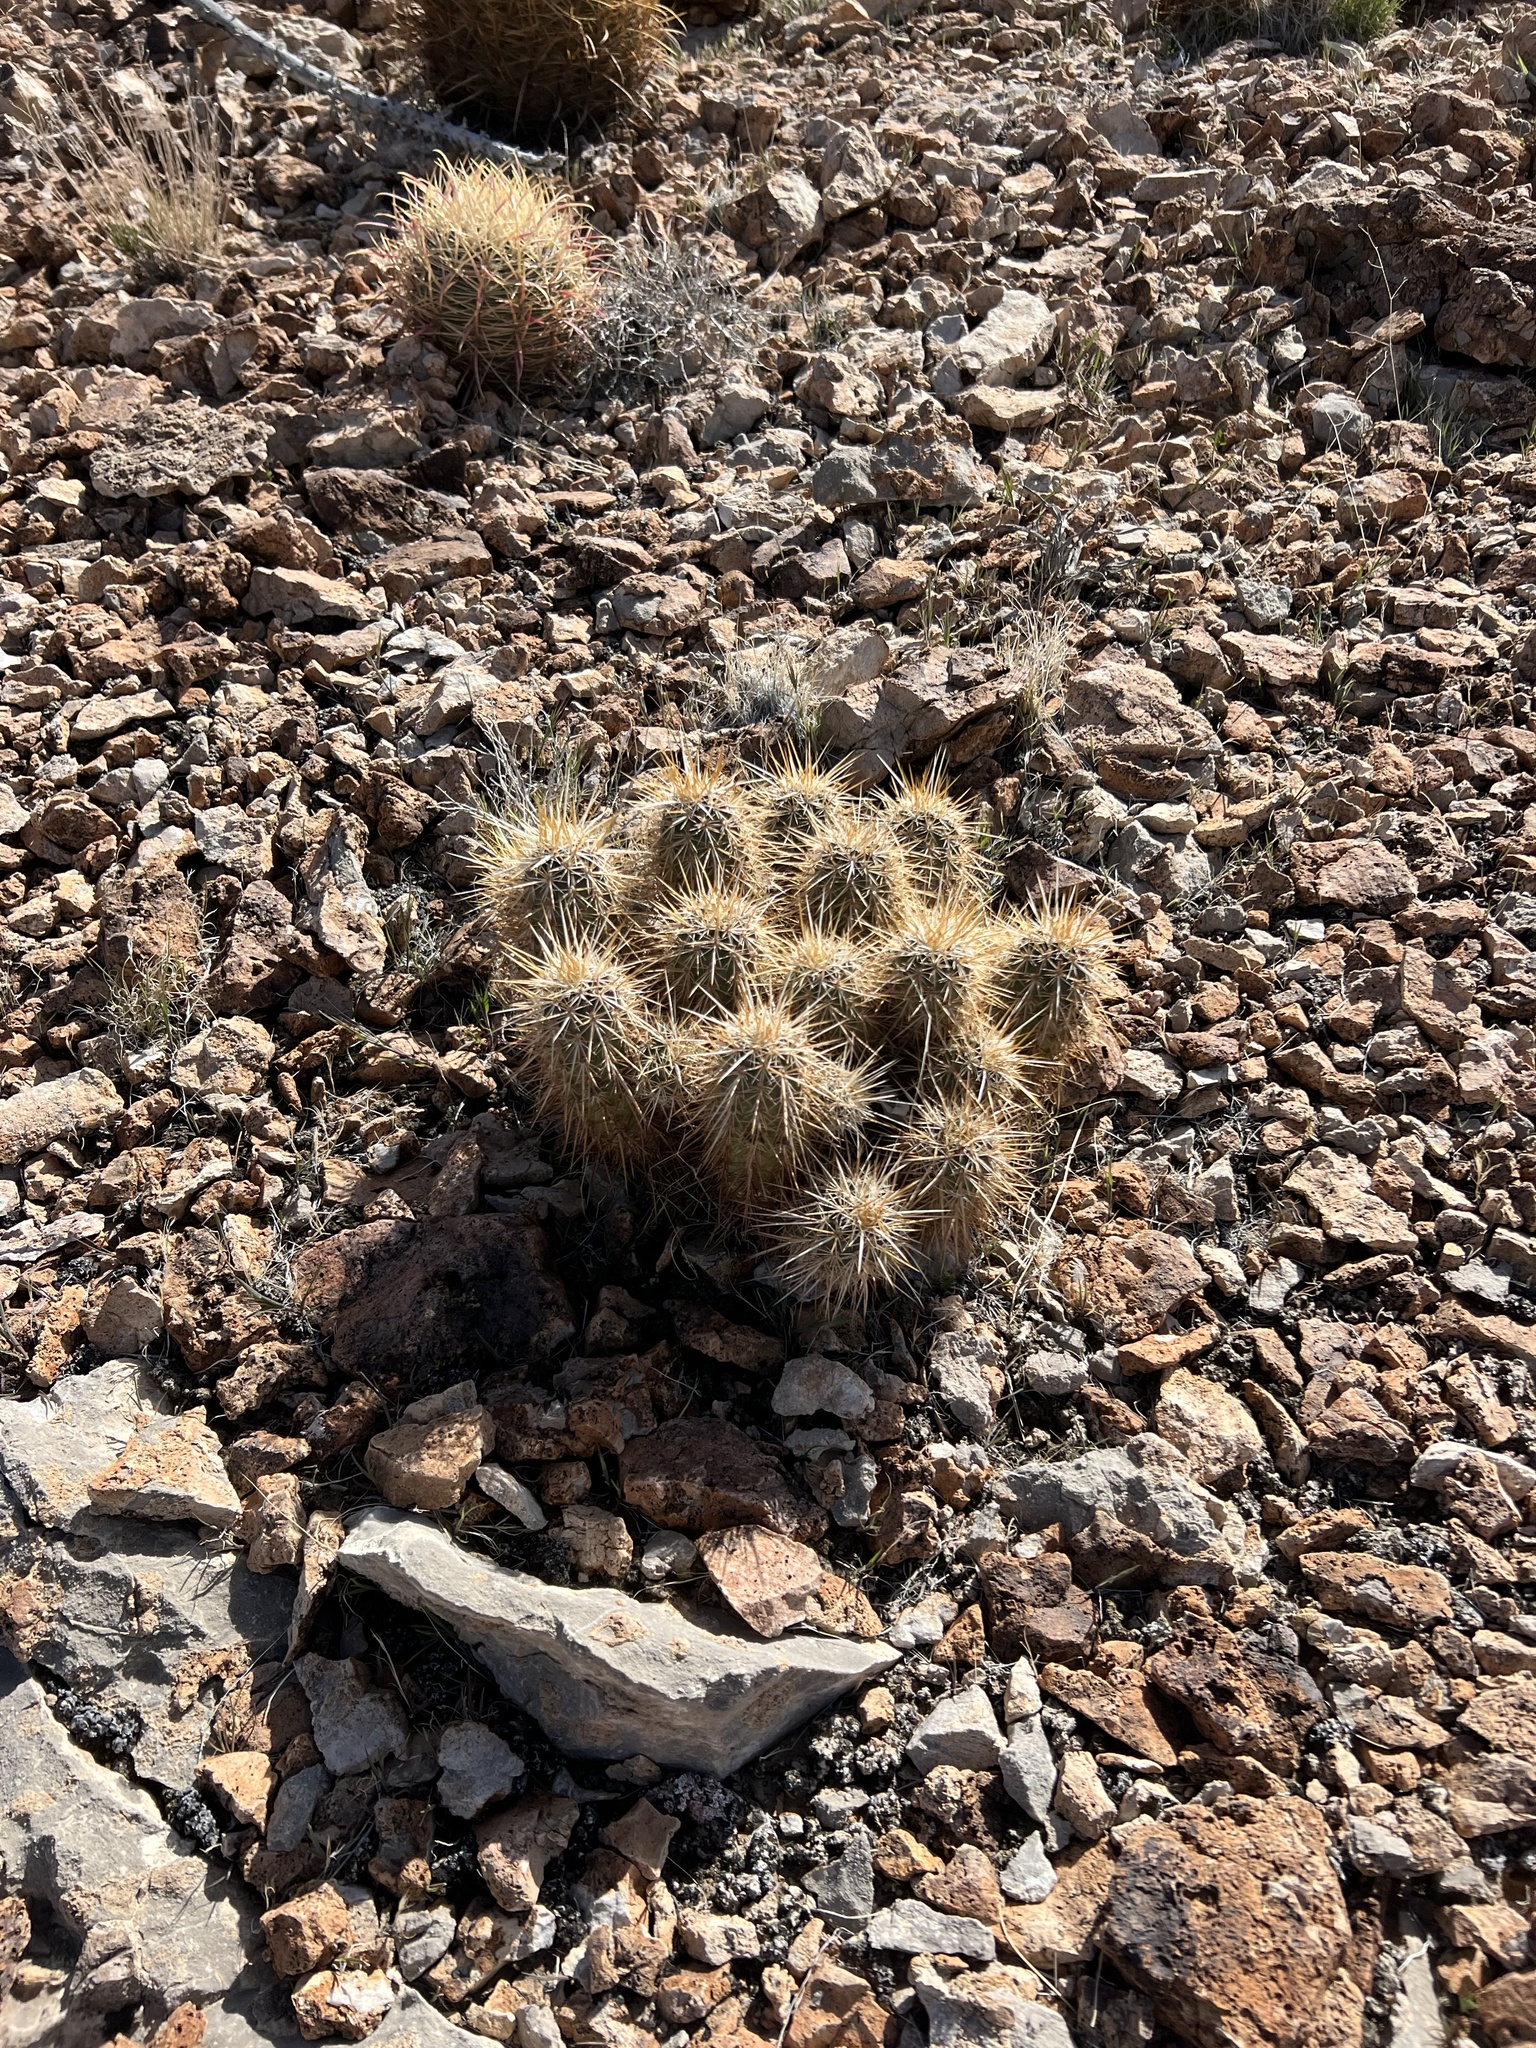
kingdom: Plantae
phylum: Tracheophyta
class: Magnoliopsida
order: Caryophyllales
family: Cactaceae
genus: Echinocereus
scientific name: Echinocereus engelmannii
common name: Engelmann's hedgehog cactus
